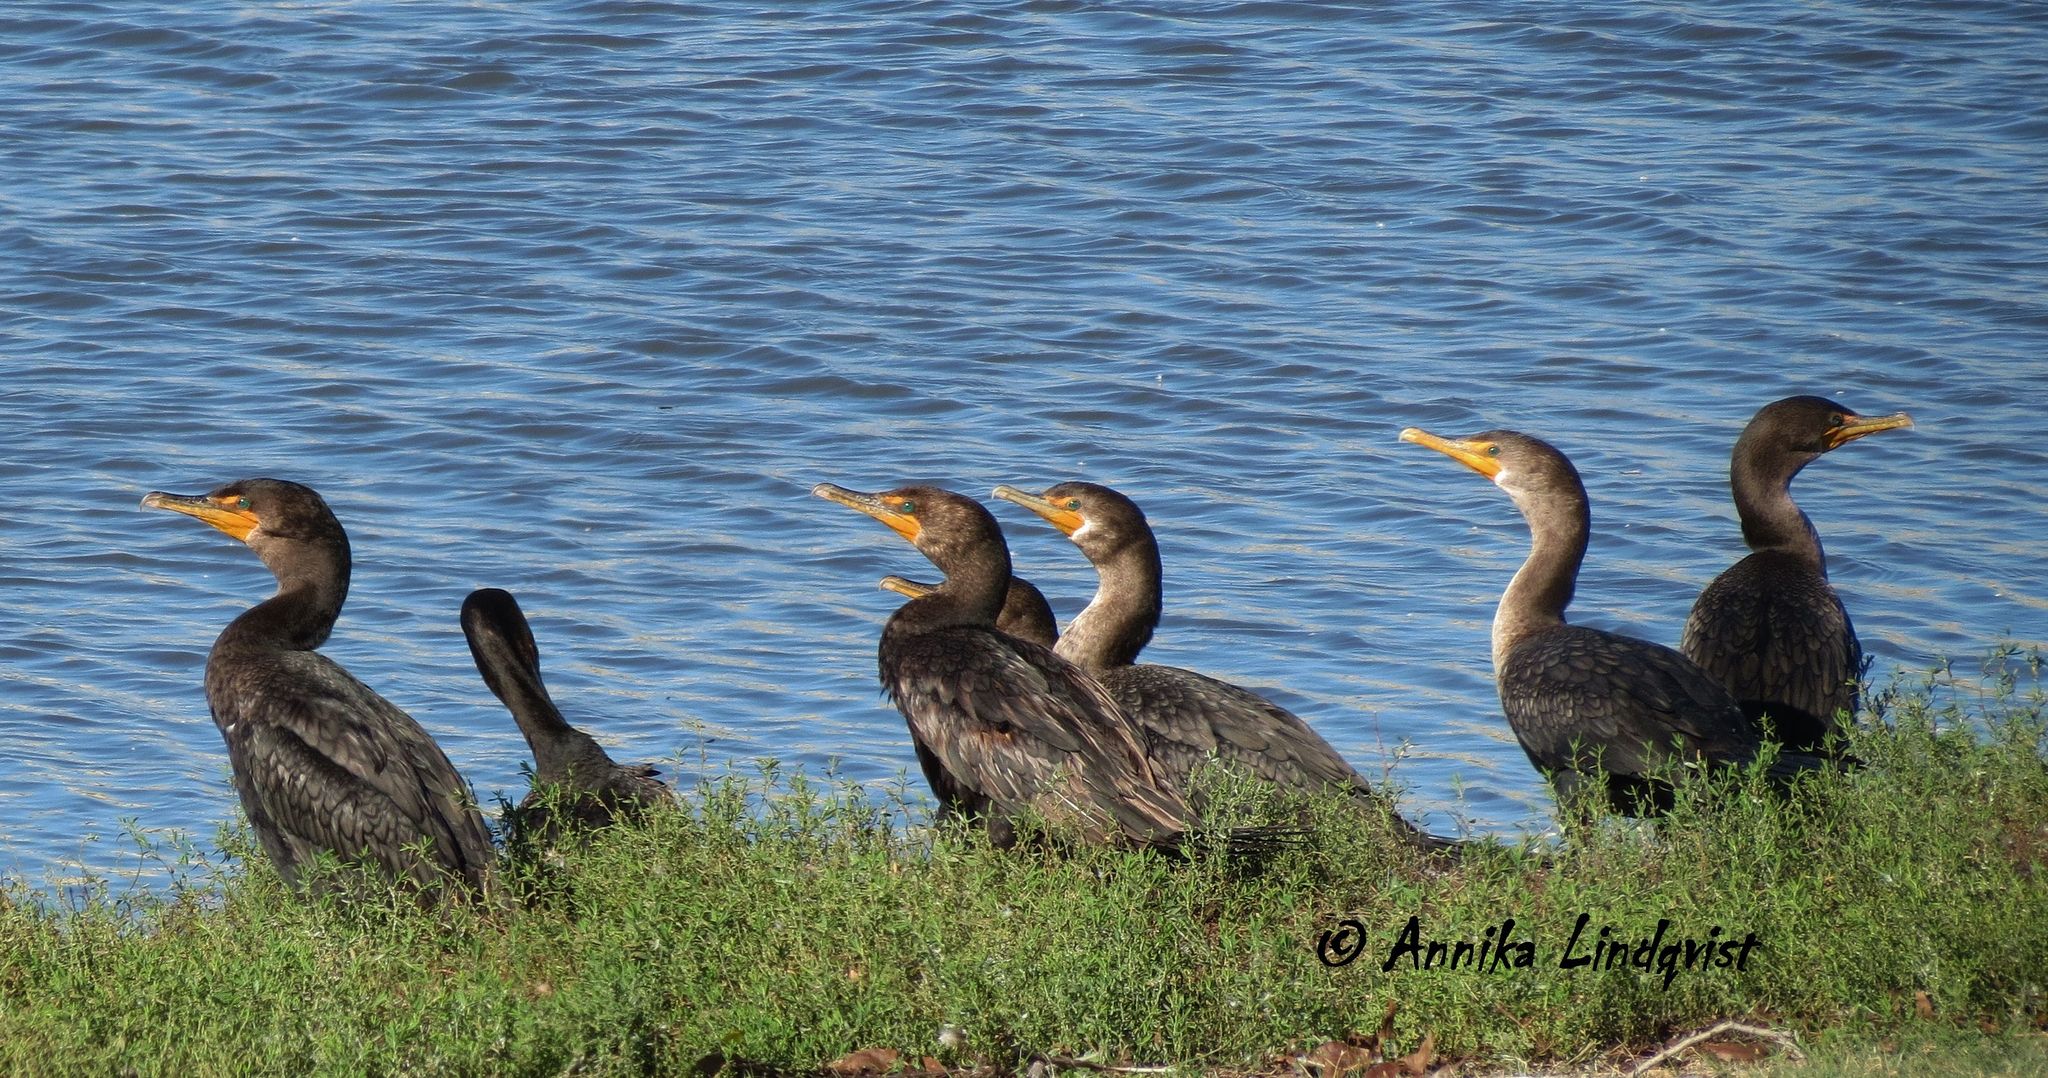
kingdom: Animalia
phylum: Chordata
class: Aves
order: Suliformes
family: Phalacrocoracidae
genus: Phalacrocorax
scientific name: Phalacrocorax auritus
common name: Double-crested cormorant
